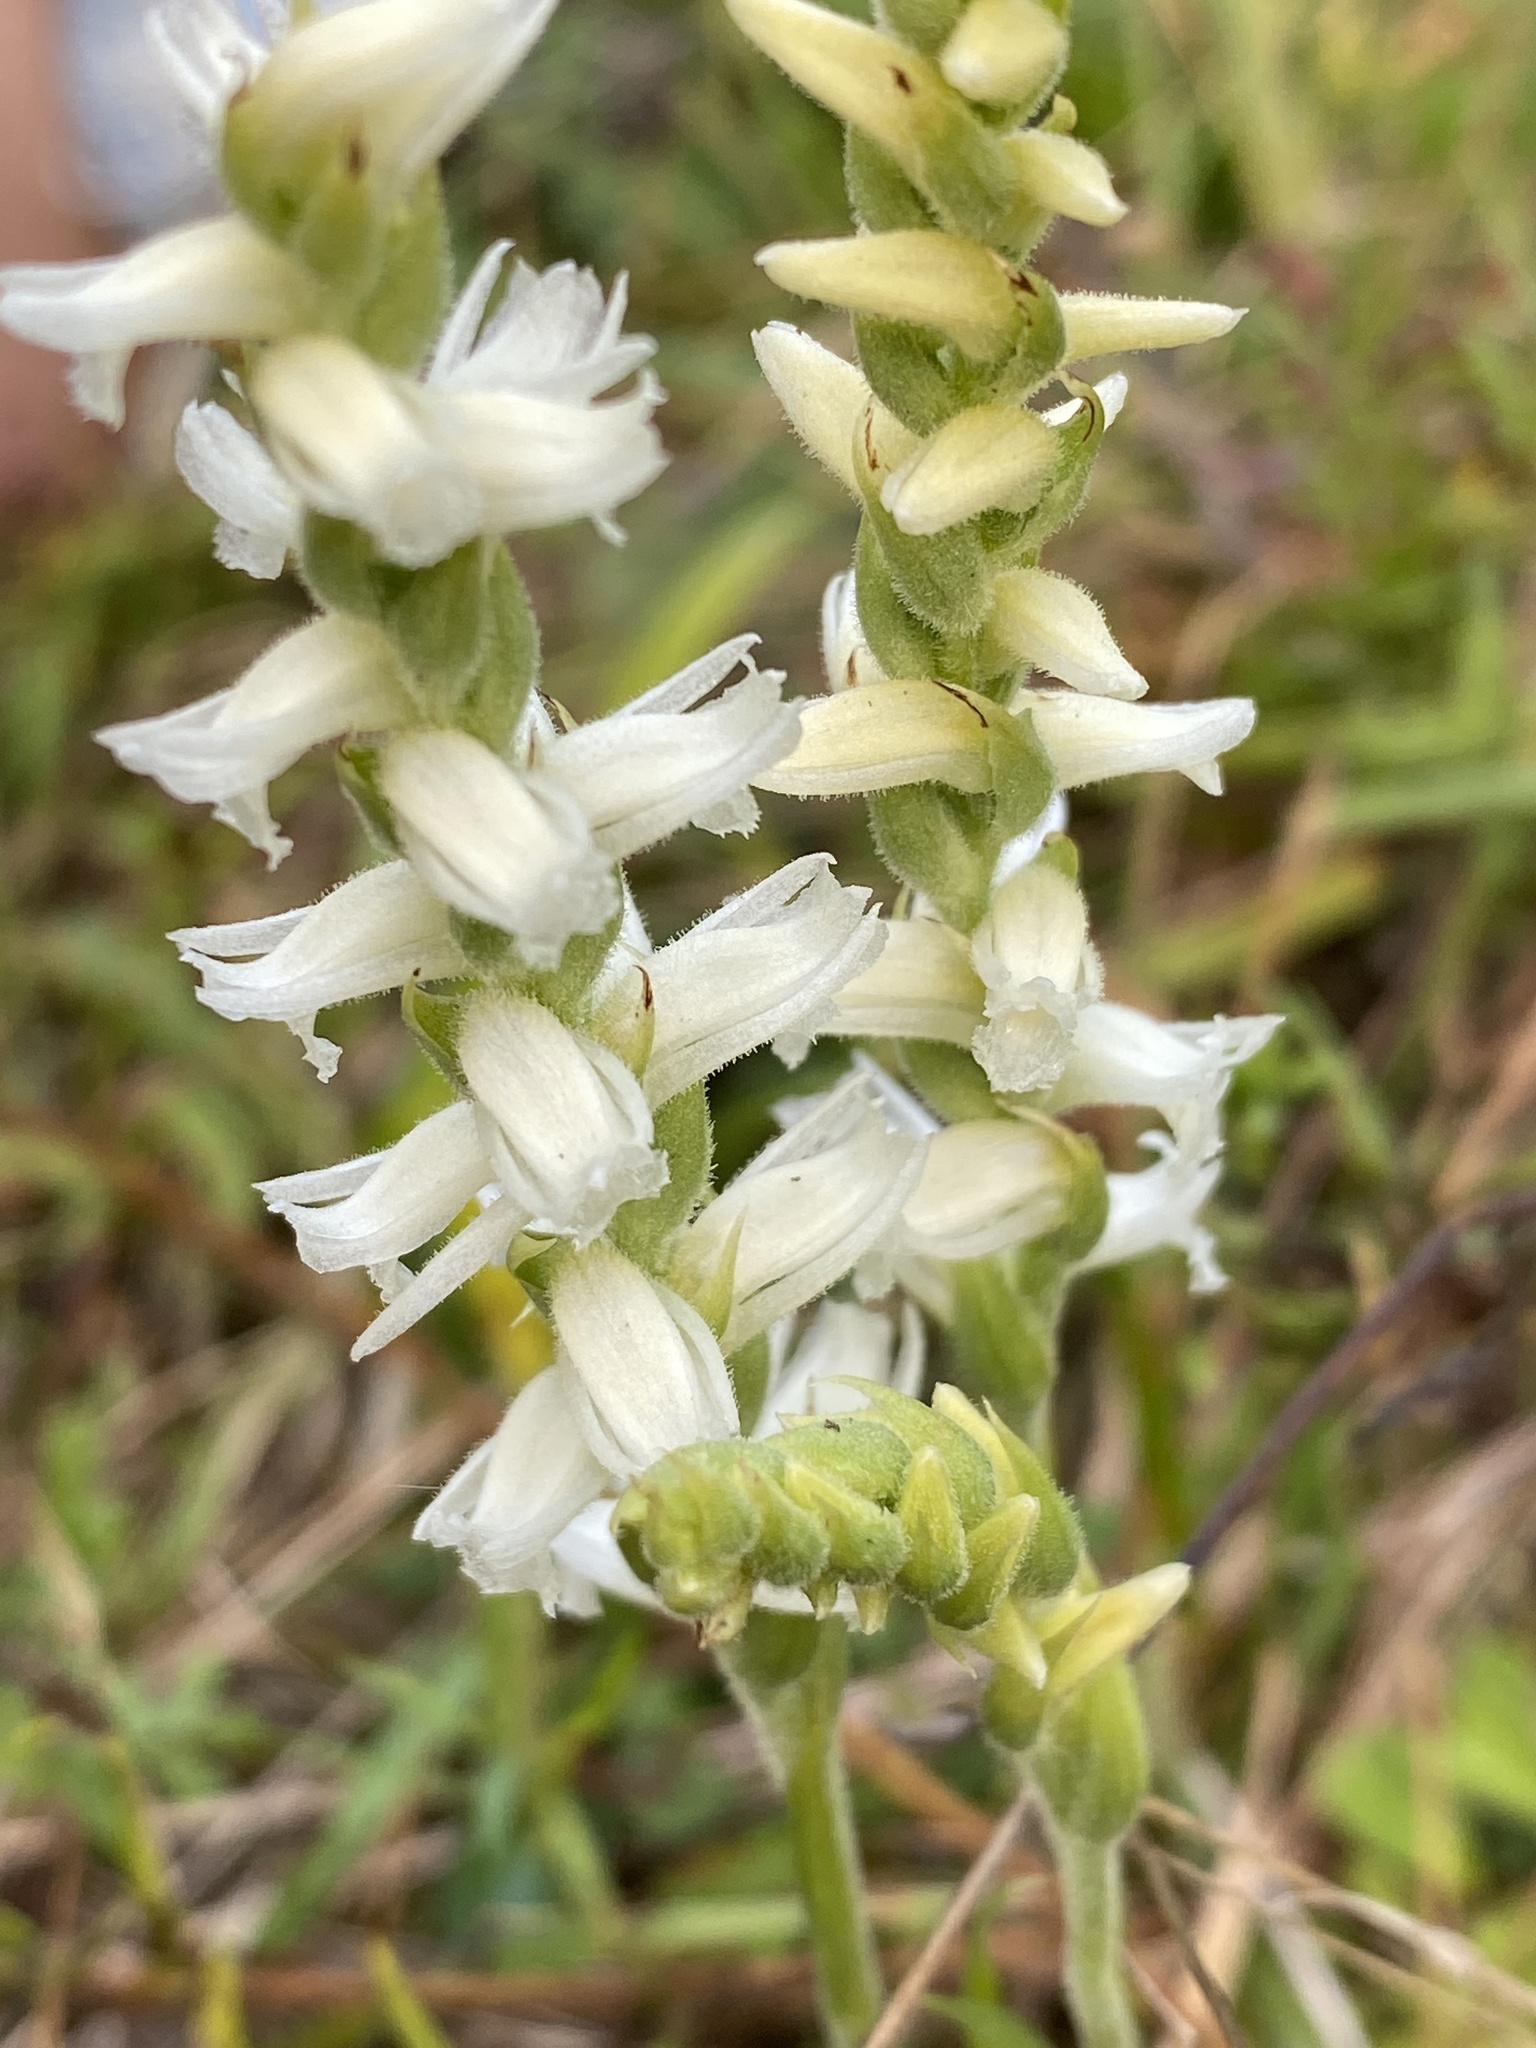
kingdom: Plantae
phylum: Tracheophyta
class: Liliopsida
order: Asparagales
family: Orchidaceae
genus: Spiranthes
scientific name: Spiranthes ochroleuca
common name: Yellow ladies'-tresses
